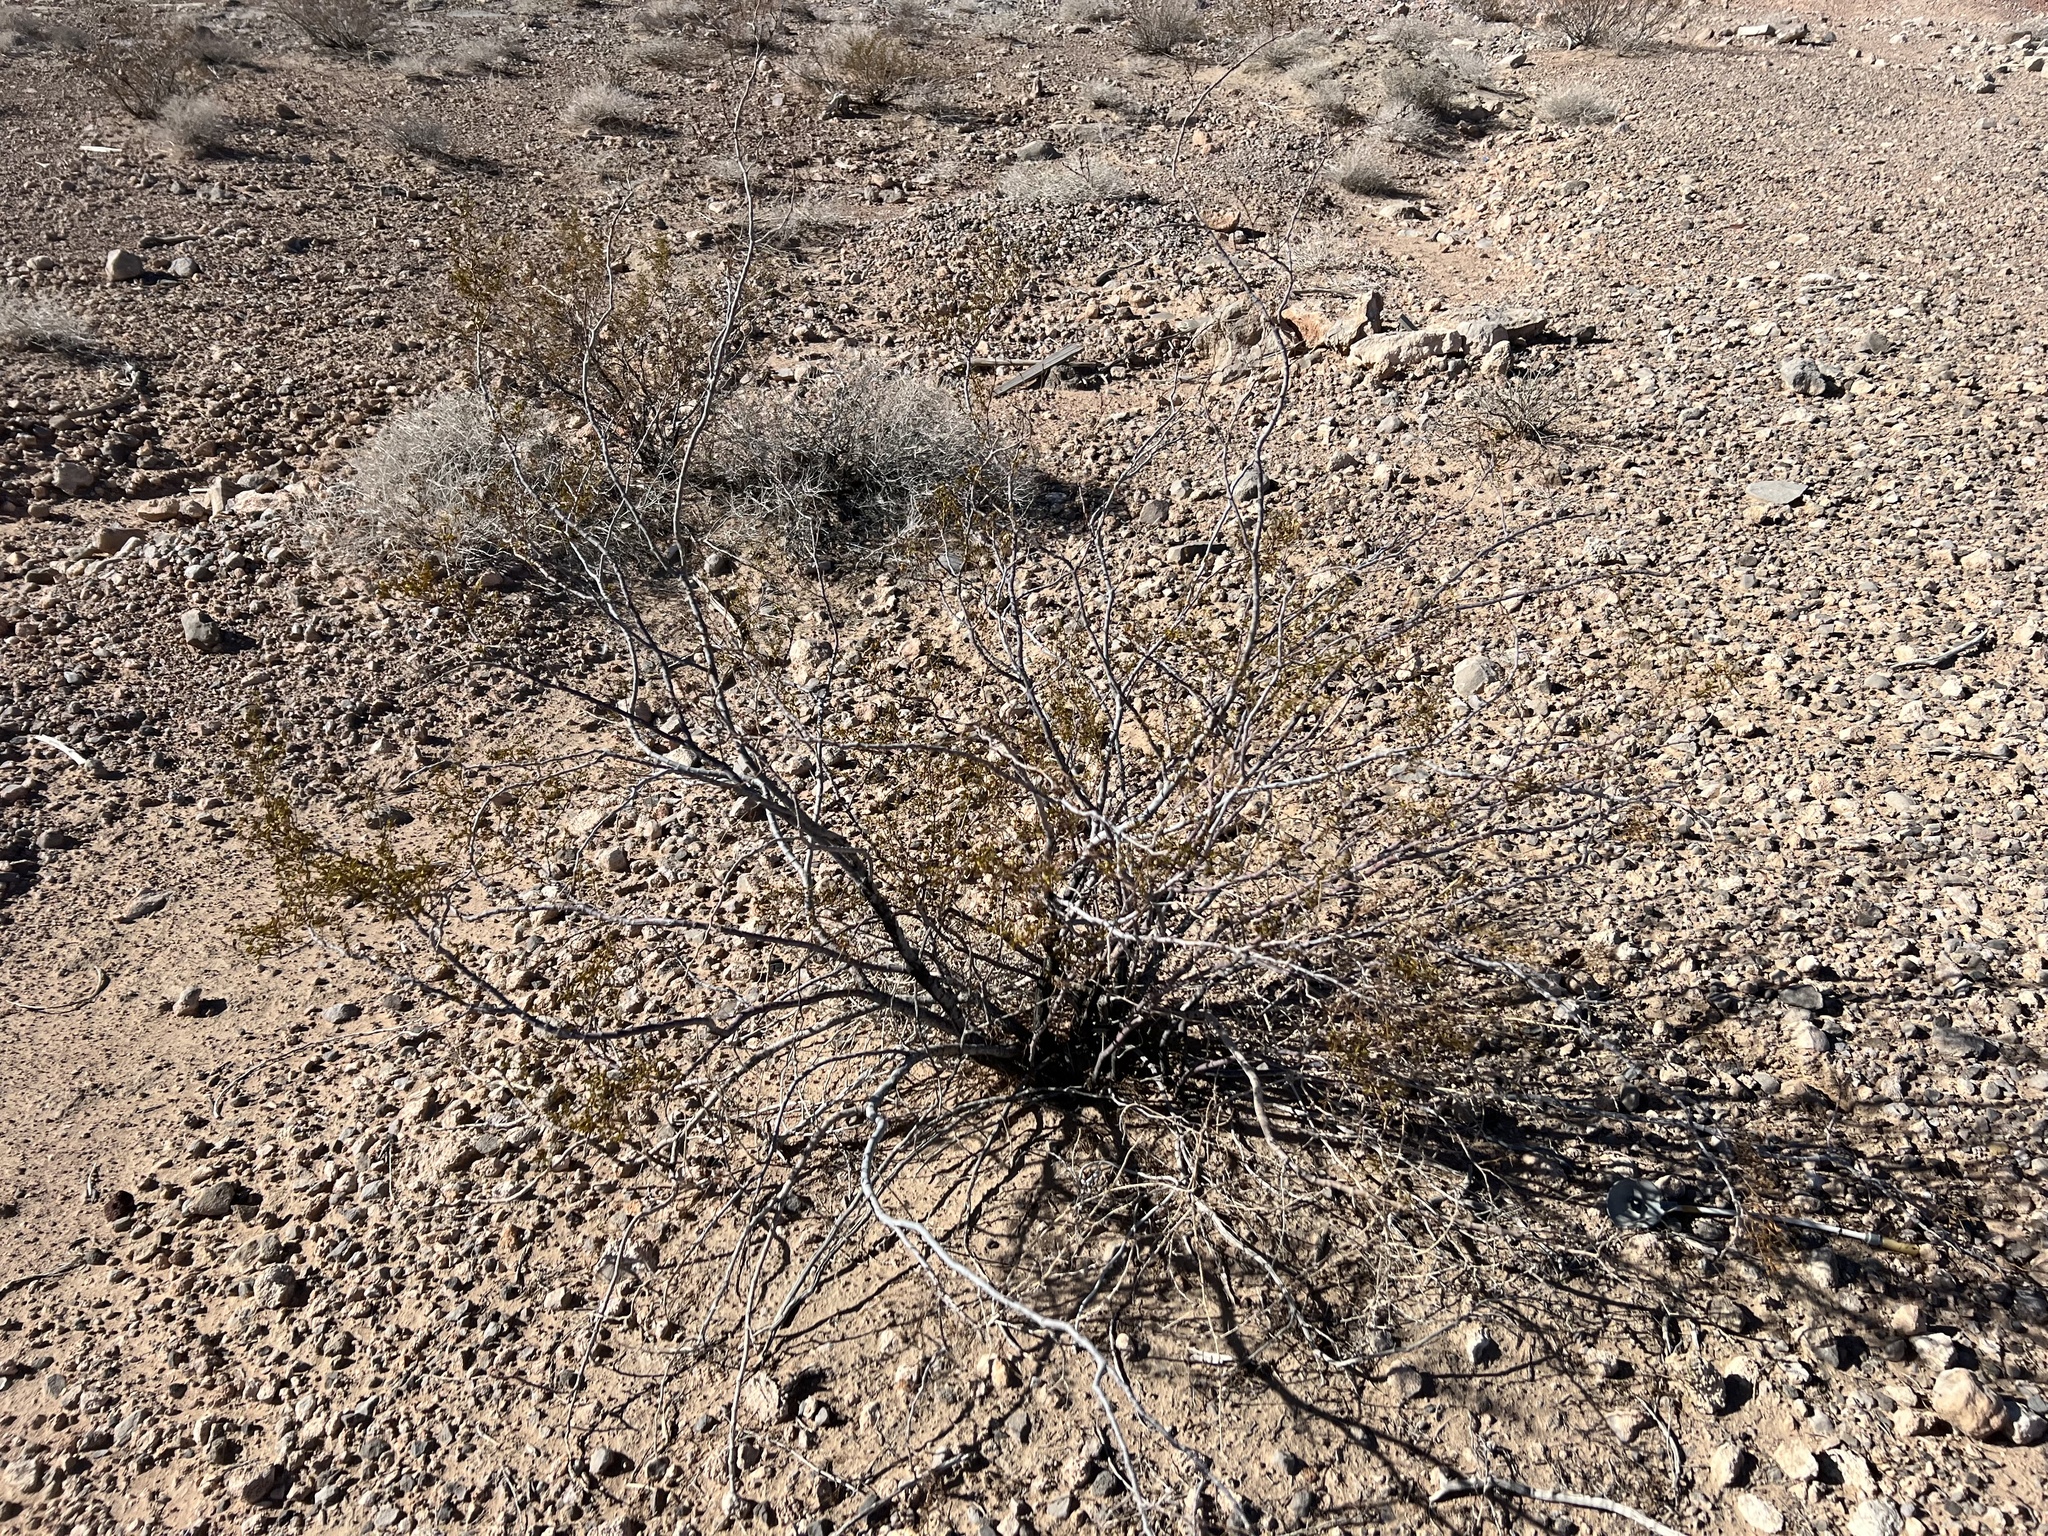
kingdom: Plantae
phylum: Tracheophyta
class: Magnoliopsida
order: Zygophyllales
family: Zygophyllaceae
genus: Larrea
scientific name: Larrea tridentata
